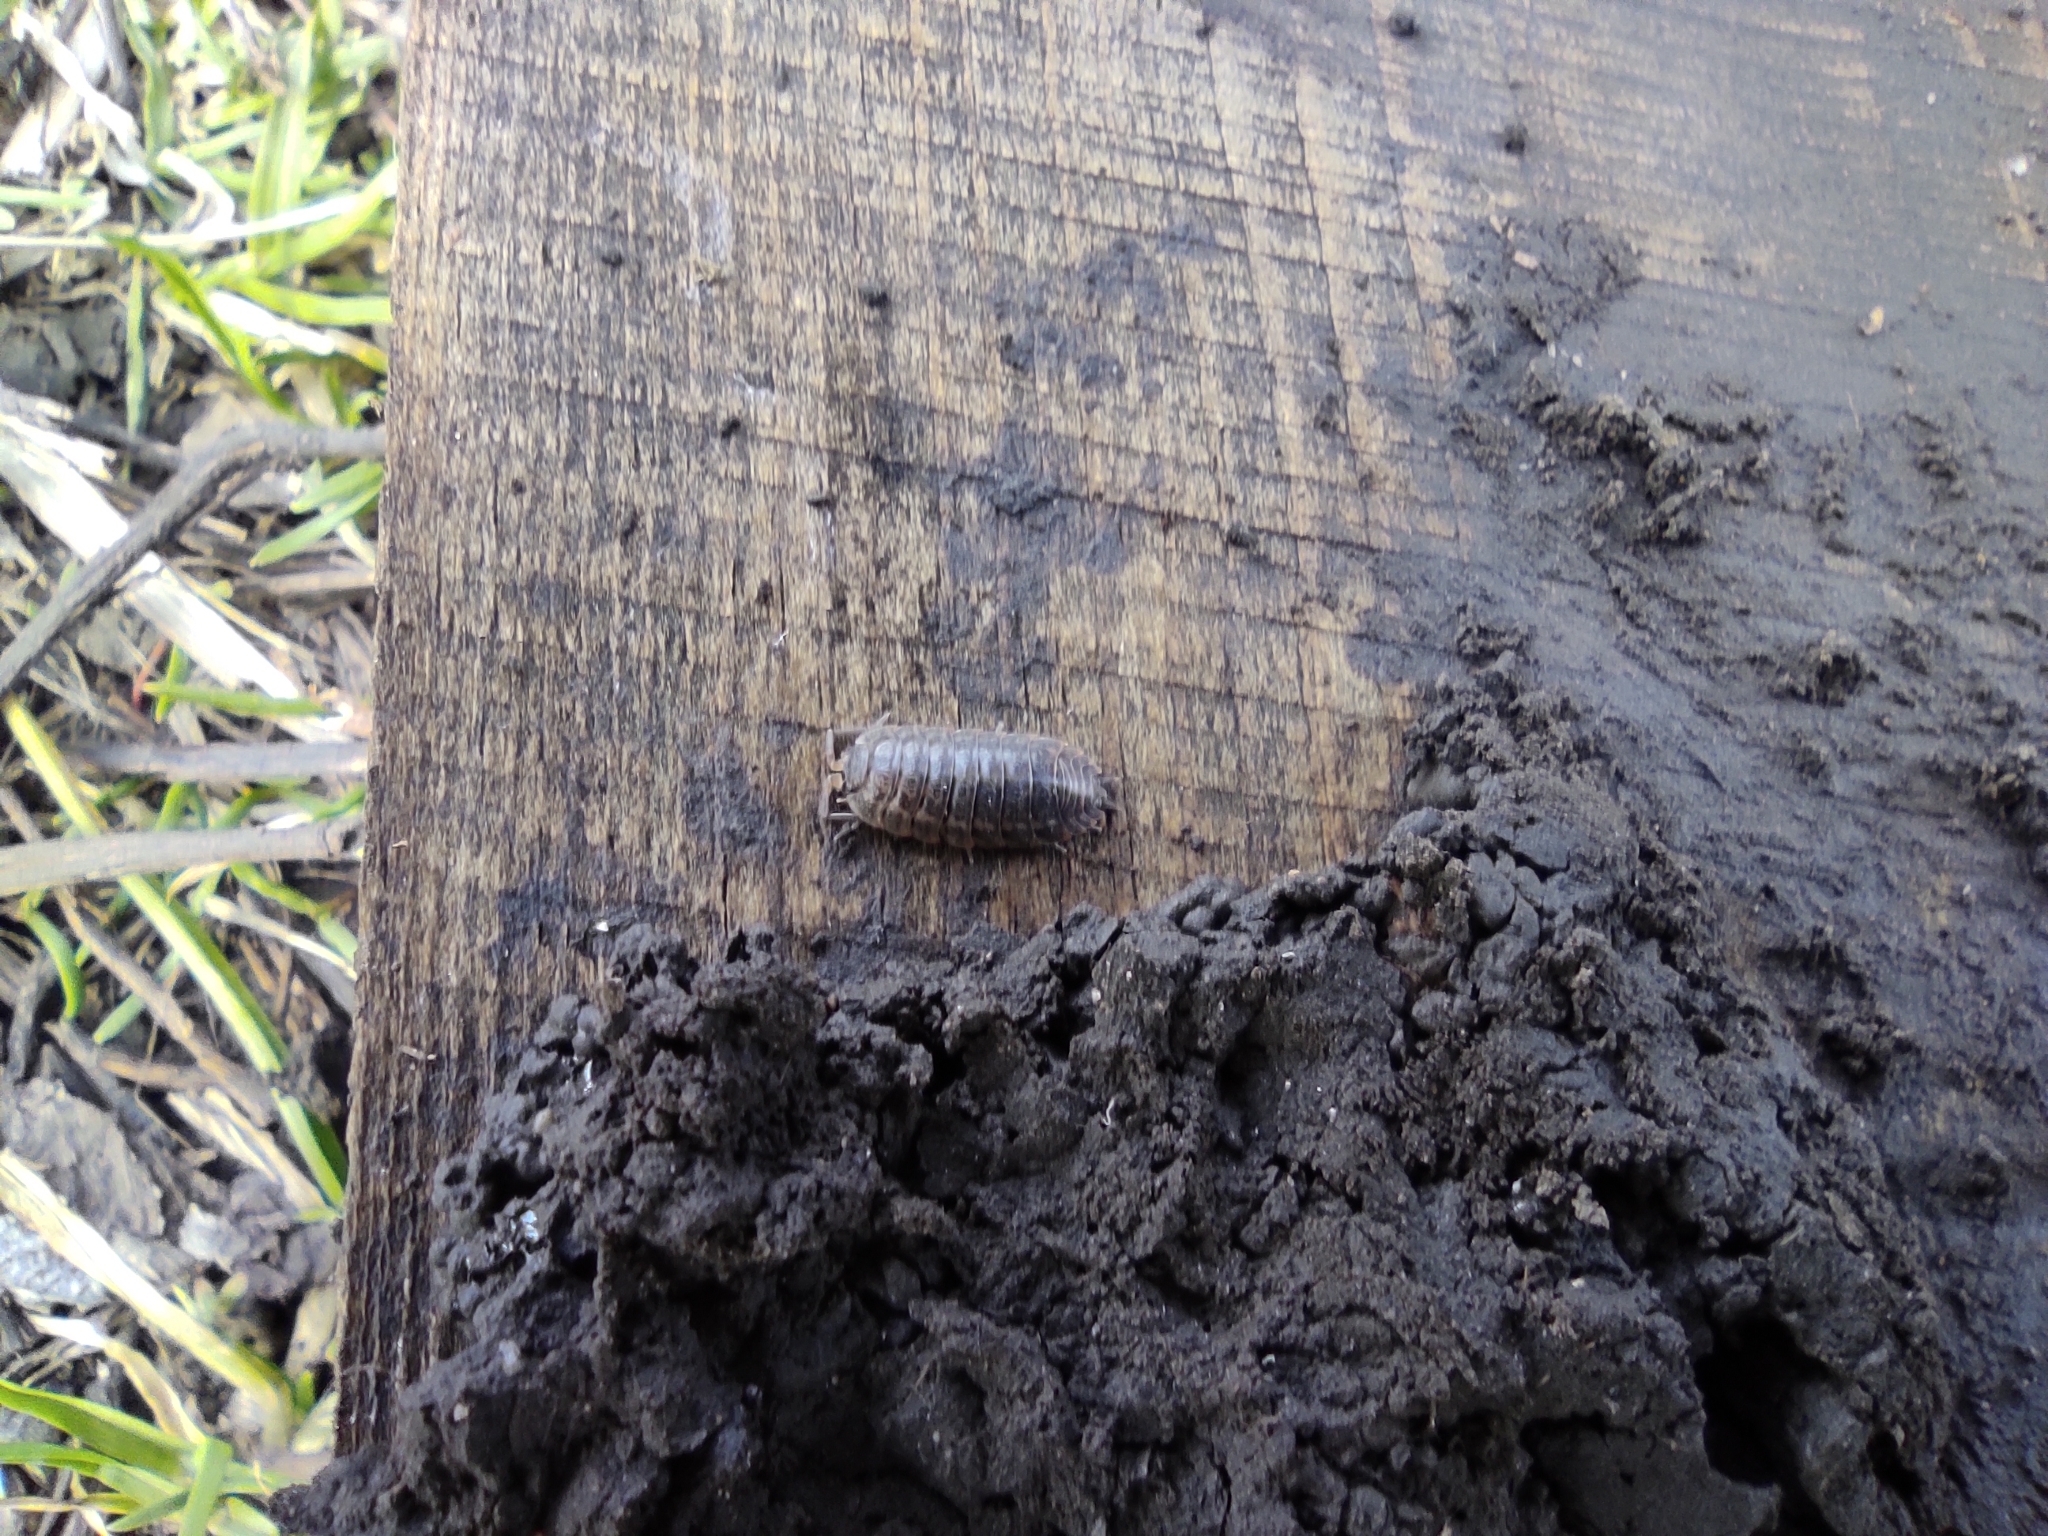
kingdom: Animalia
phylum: Arthropoda
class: Malacostraca
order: Isopoda
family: Trachelipodidae
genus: Trachelipus
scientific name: Trachelipus rathkii
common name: Isopod
